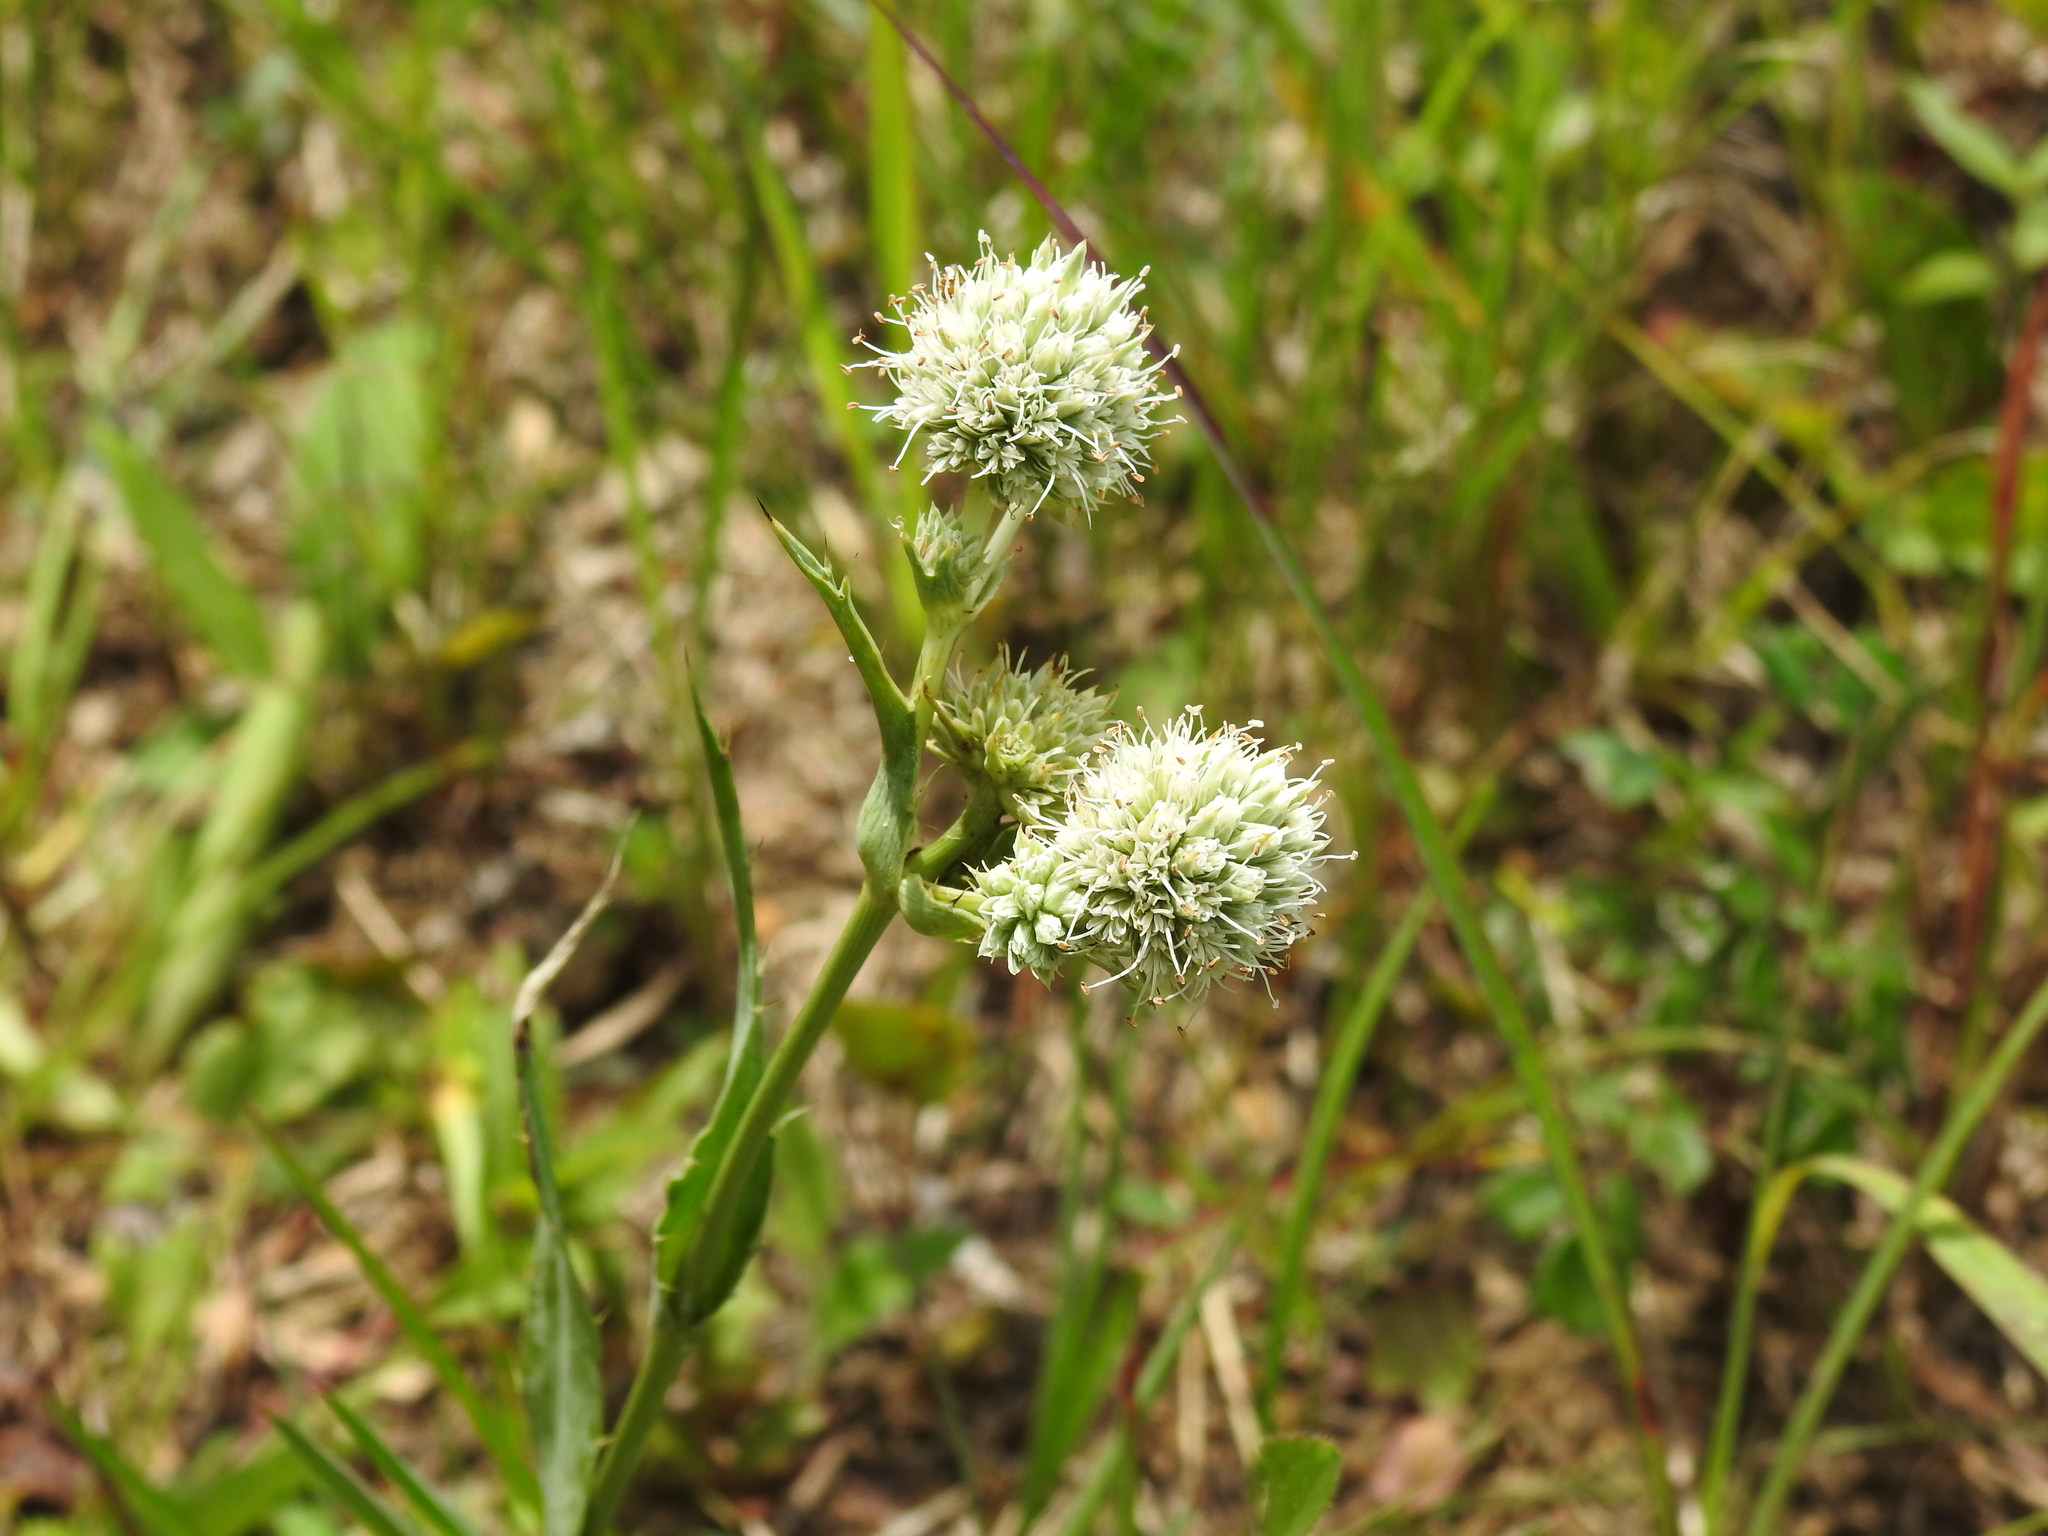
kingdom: Plantae
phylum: Tracheophyta
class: Magnoliopsida
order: Apiales
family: Apiaceae
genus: Eryngium
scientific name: Eryngium yuccifolium
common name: Button eryngo
